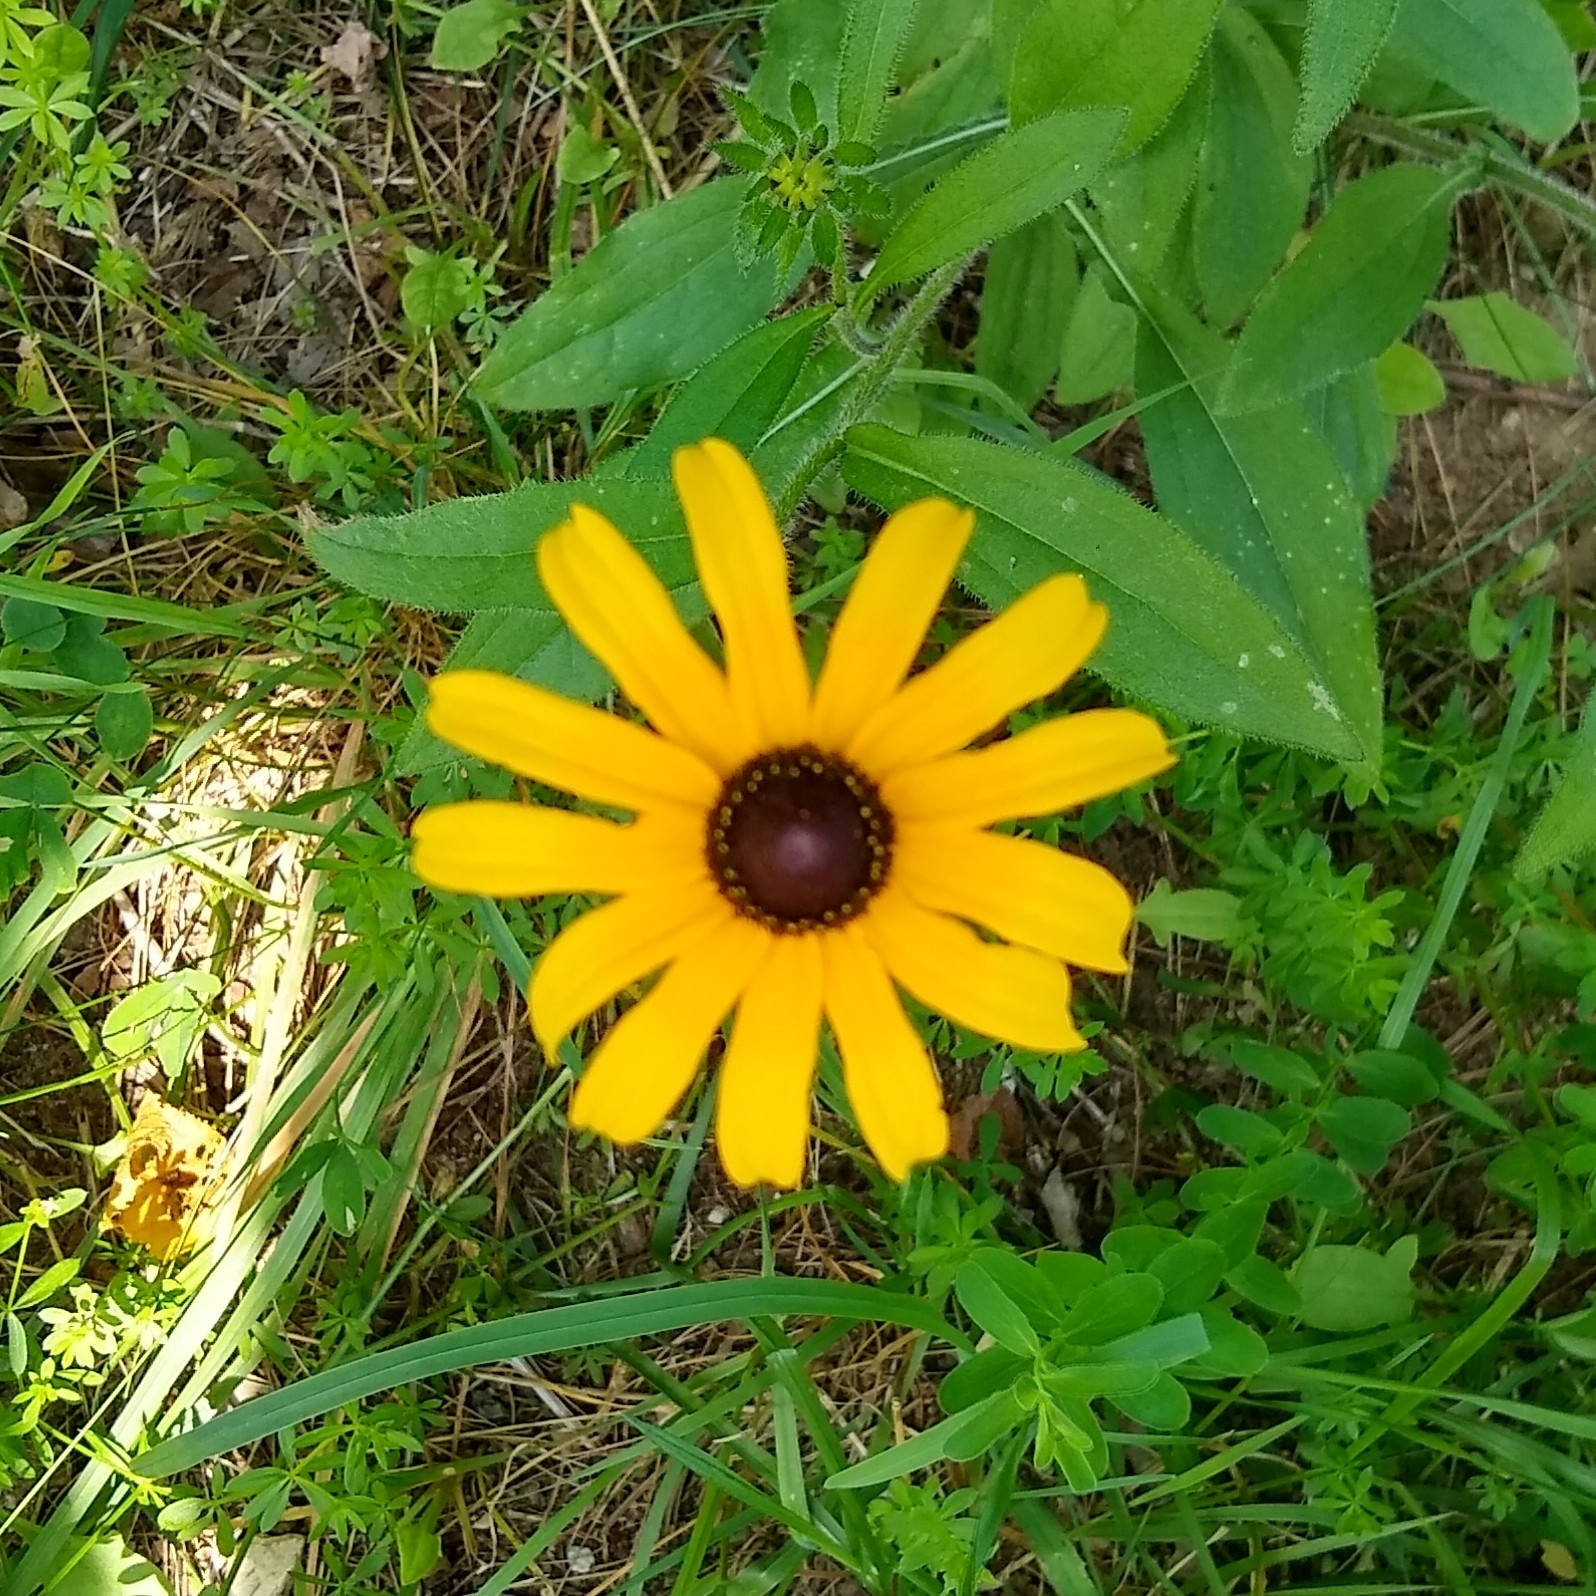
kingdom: Plantae
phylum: Tracheophyta
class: Magnoliopsida
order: Asterales
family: Asteraceae
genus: Rudbeckia
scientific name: Rudbeckia hirta
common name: Black-eyed-susan
